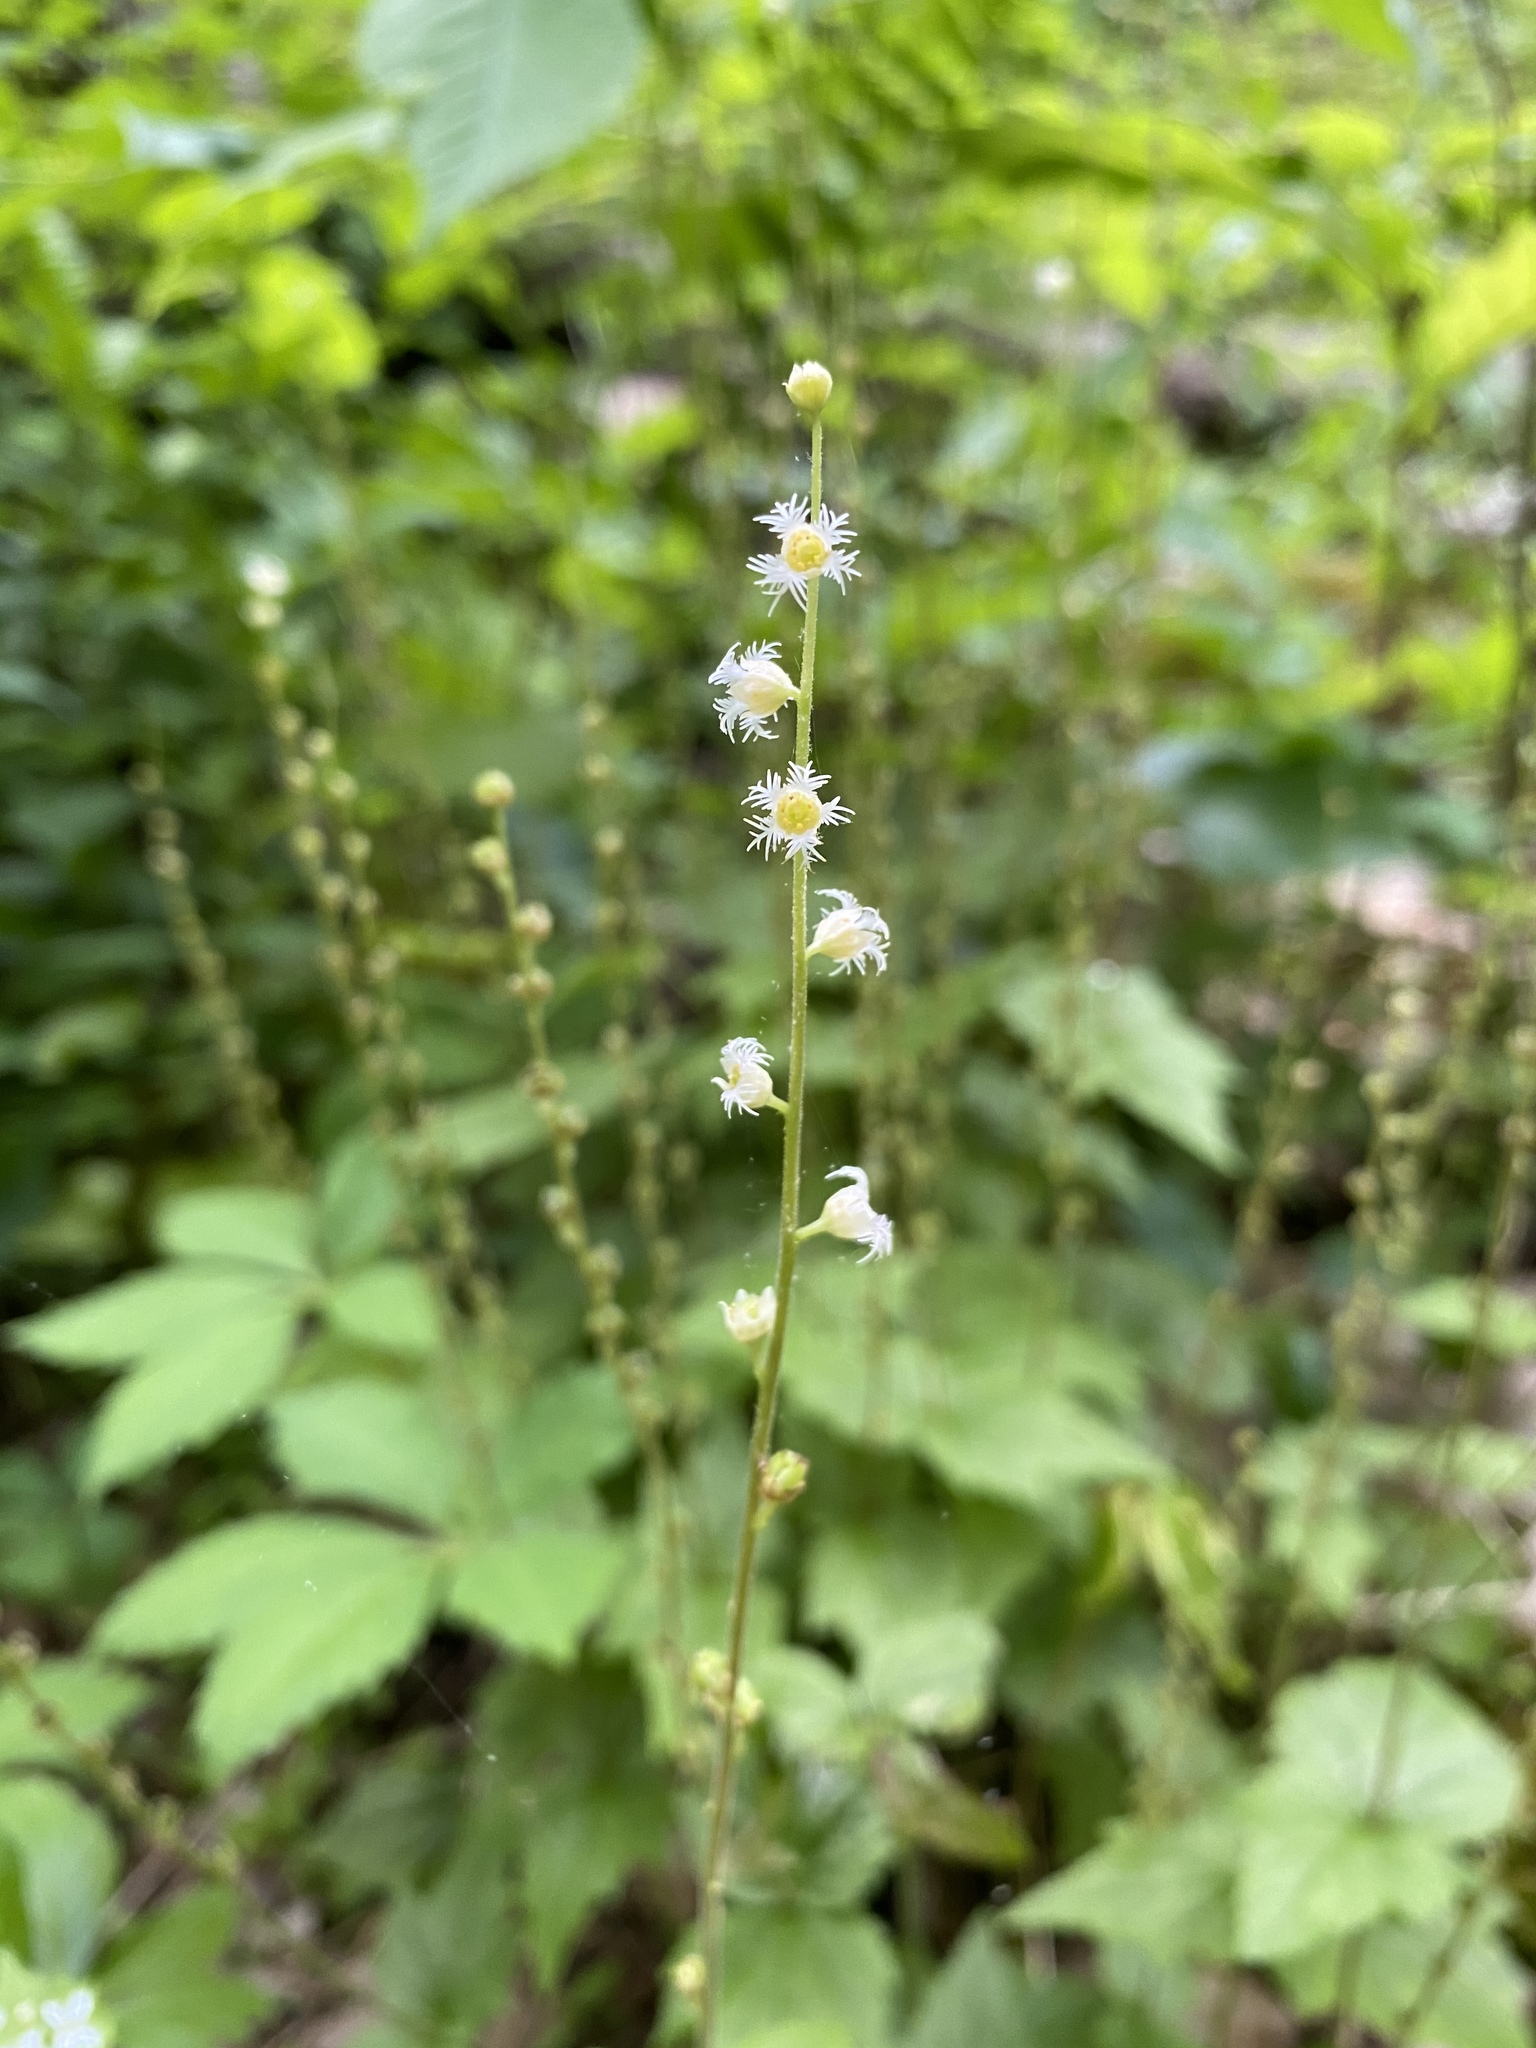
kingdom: Plantae
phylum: Tracheophyta
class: Magnoliopsida
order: Saxifragales
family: Saxifragaceae
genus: Mitella
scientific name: Mitella diphylla
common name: Coolwort
